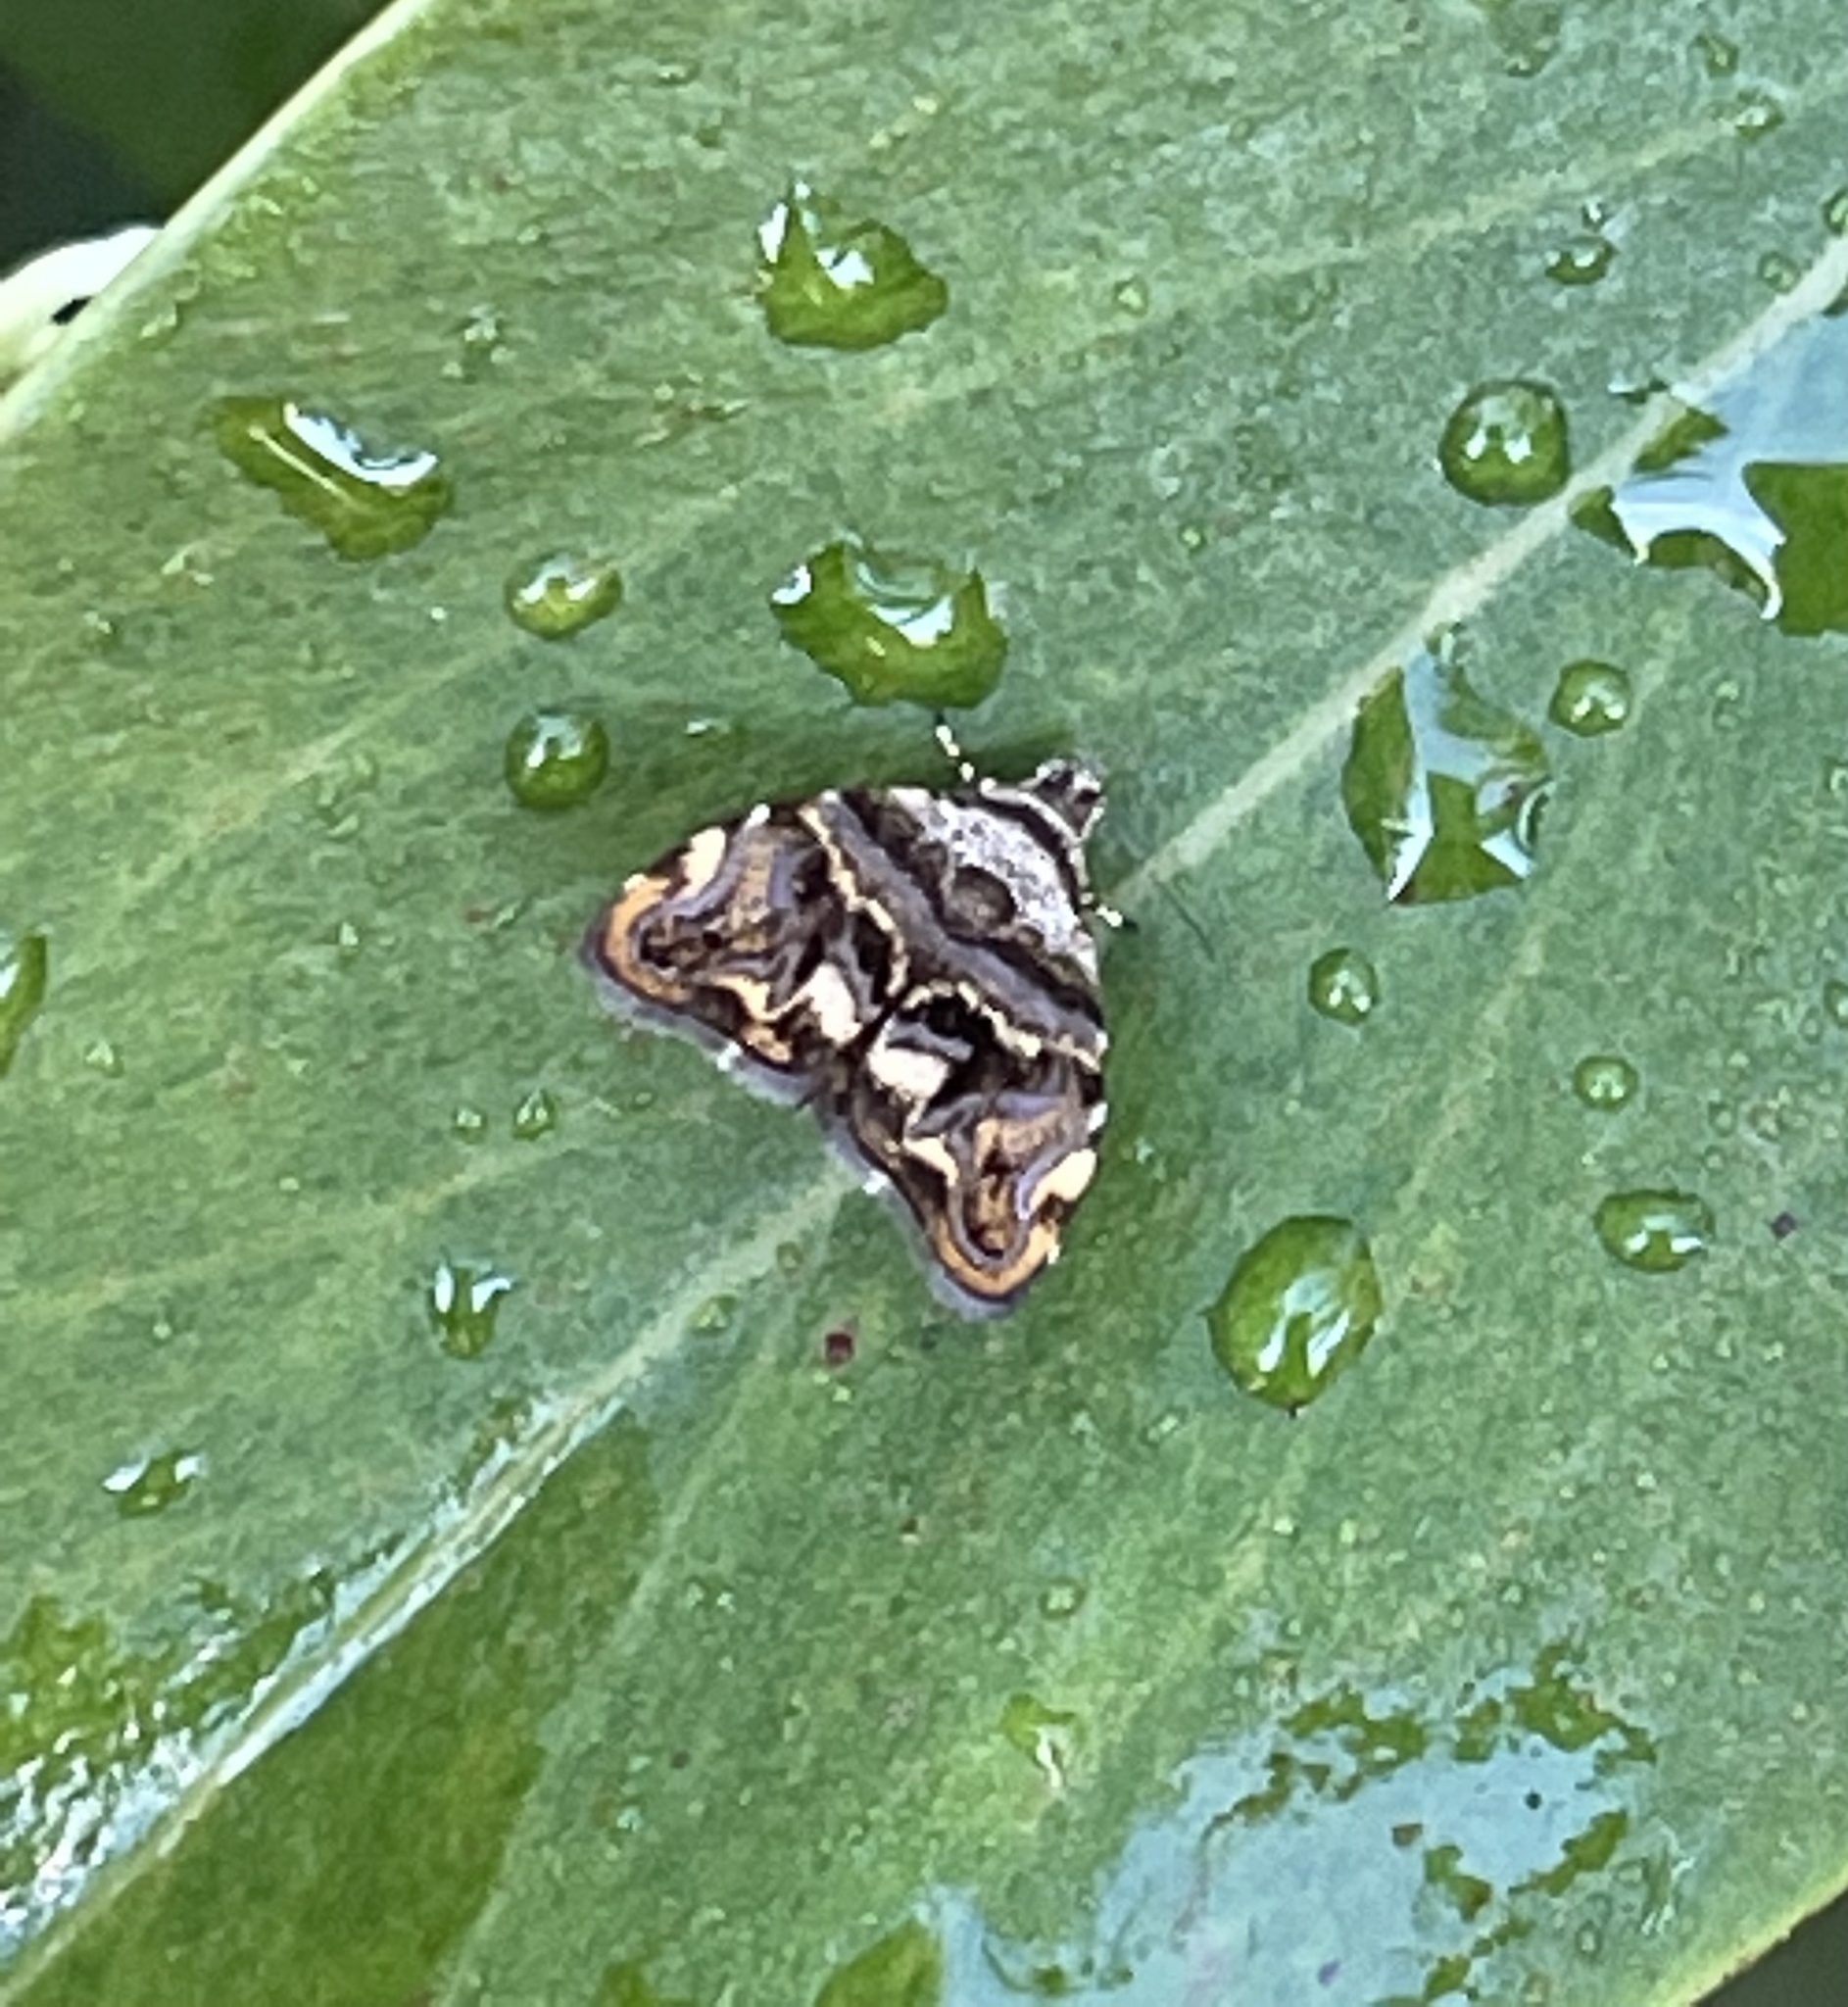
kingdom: Animalia
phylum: Arthropoda
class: Insecta
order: Lepidoptera
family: Choreutidae
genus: Choreutis
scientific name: Choreutis metallica
